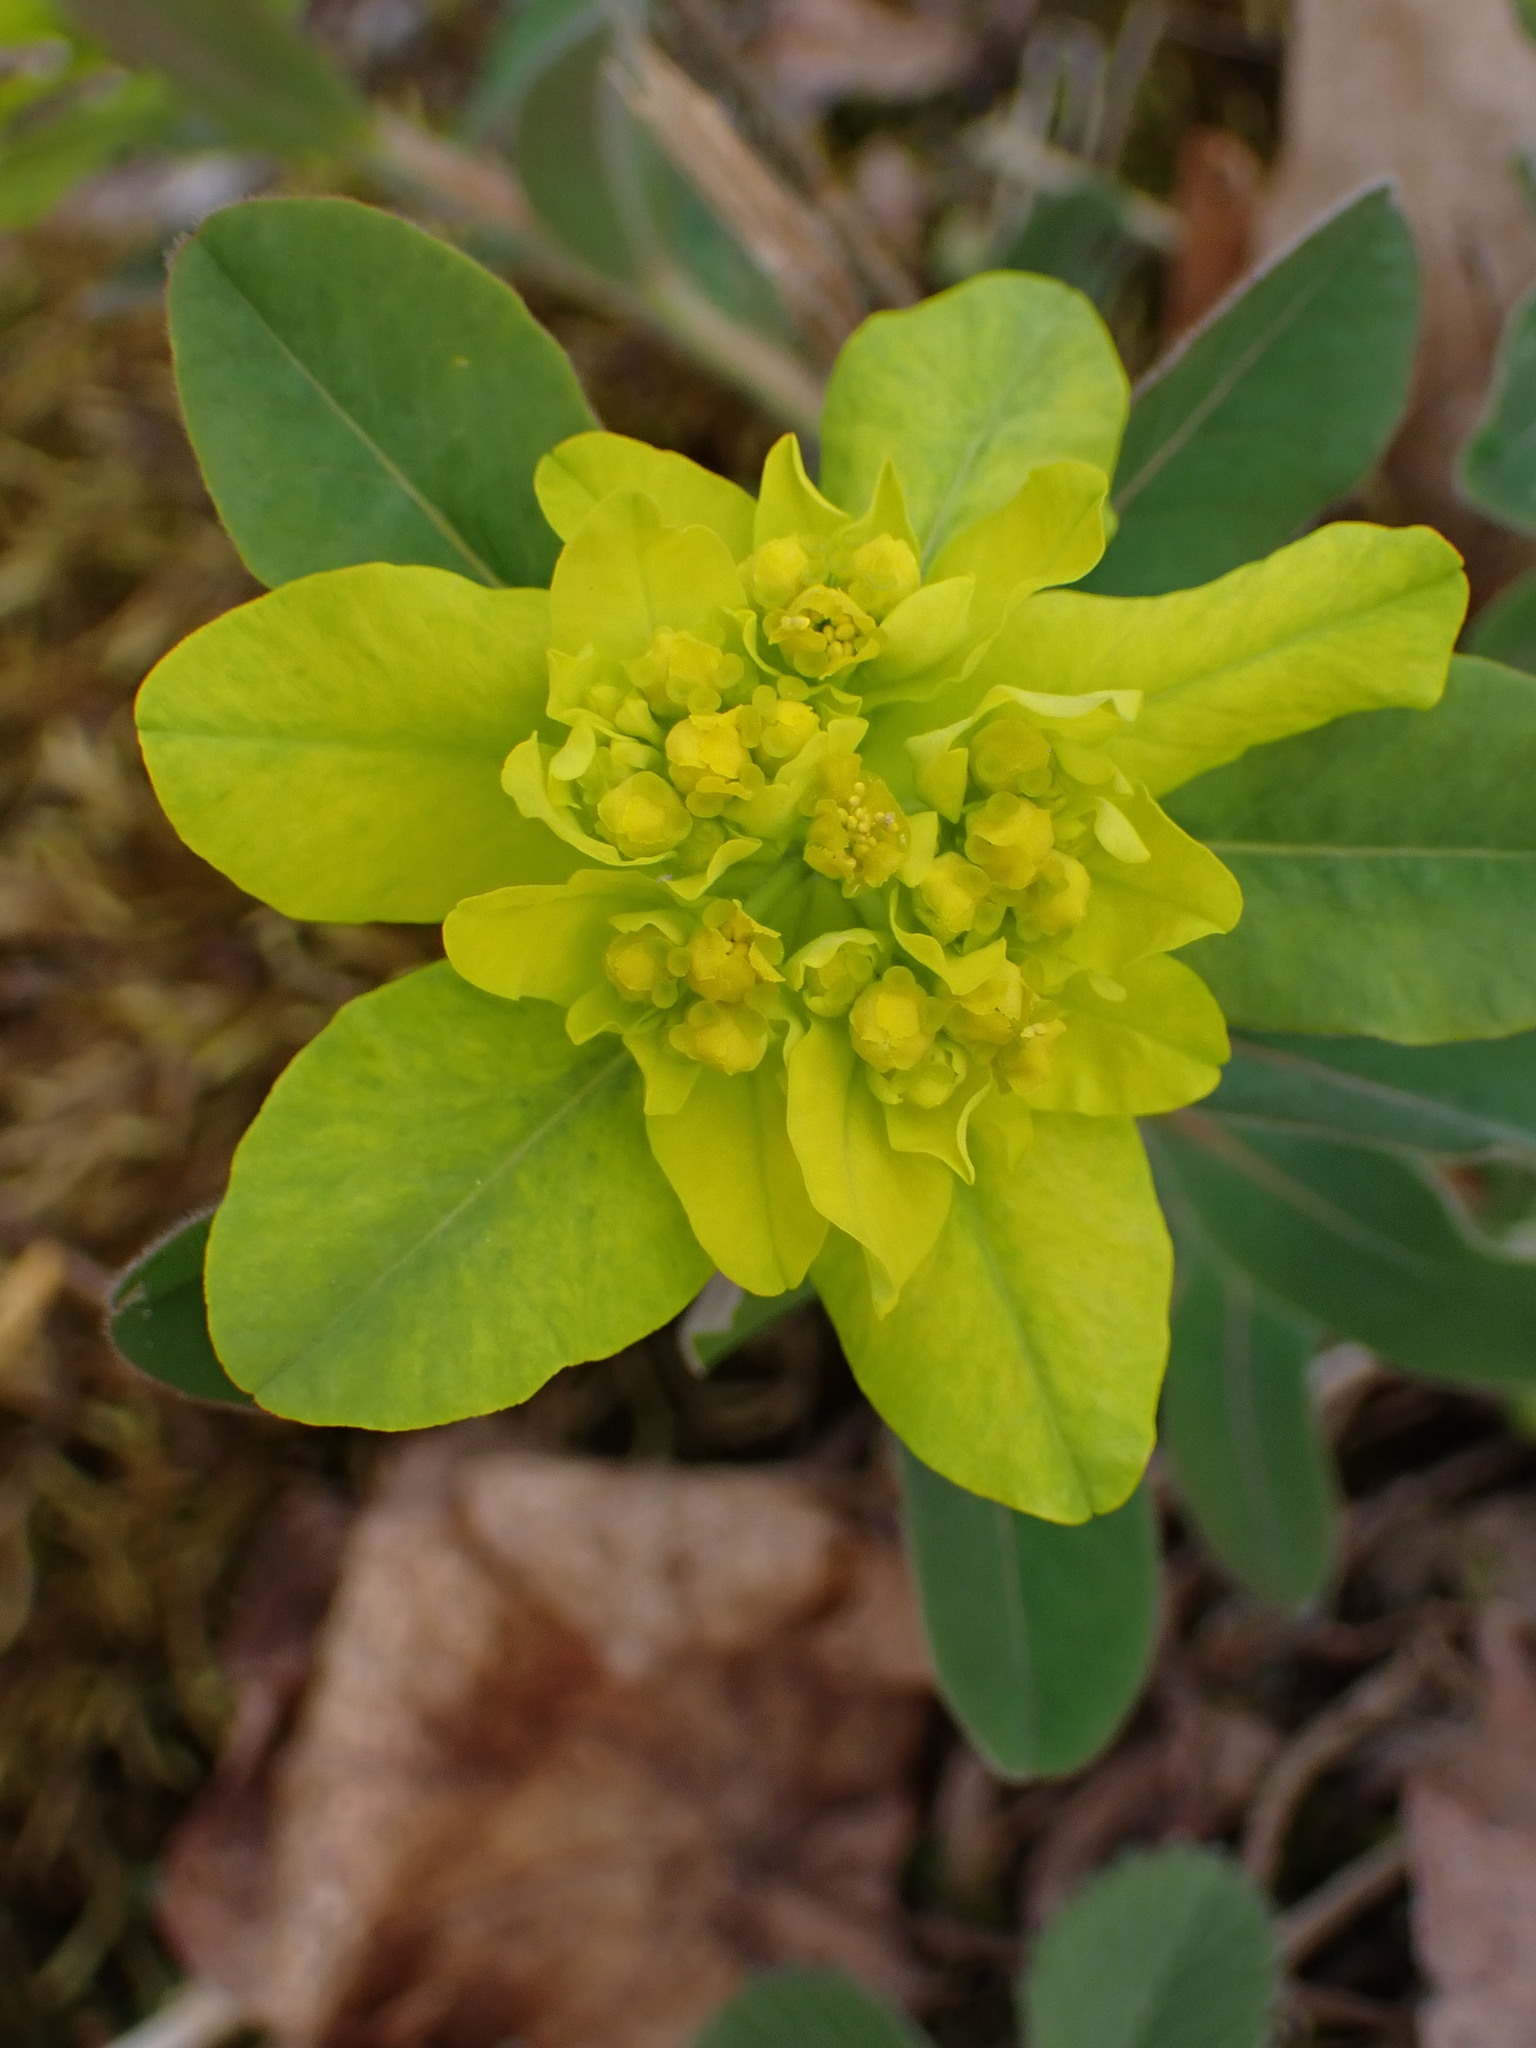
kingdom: Plantae
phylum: Tracheophyta
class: Magnoliopsida
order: Malpighiales
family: Euphorbiaceae
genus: Euphorbia
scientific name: Euphorbia epithymoides
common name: Cushion spurge
